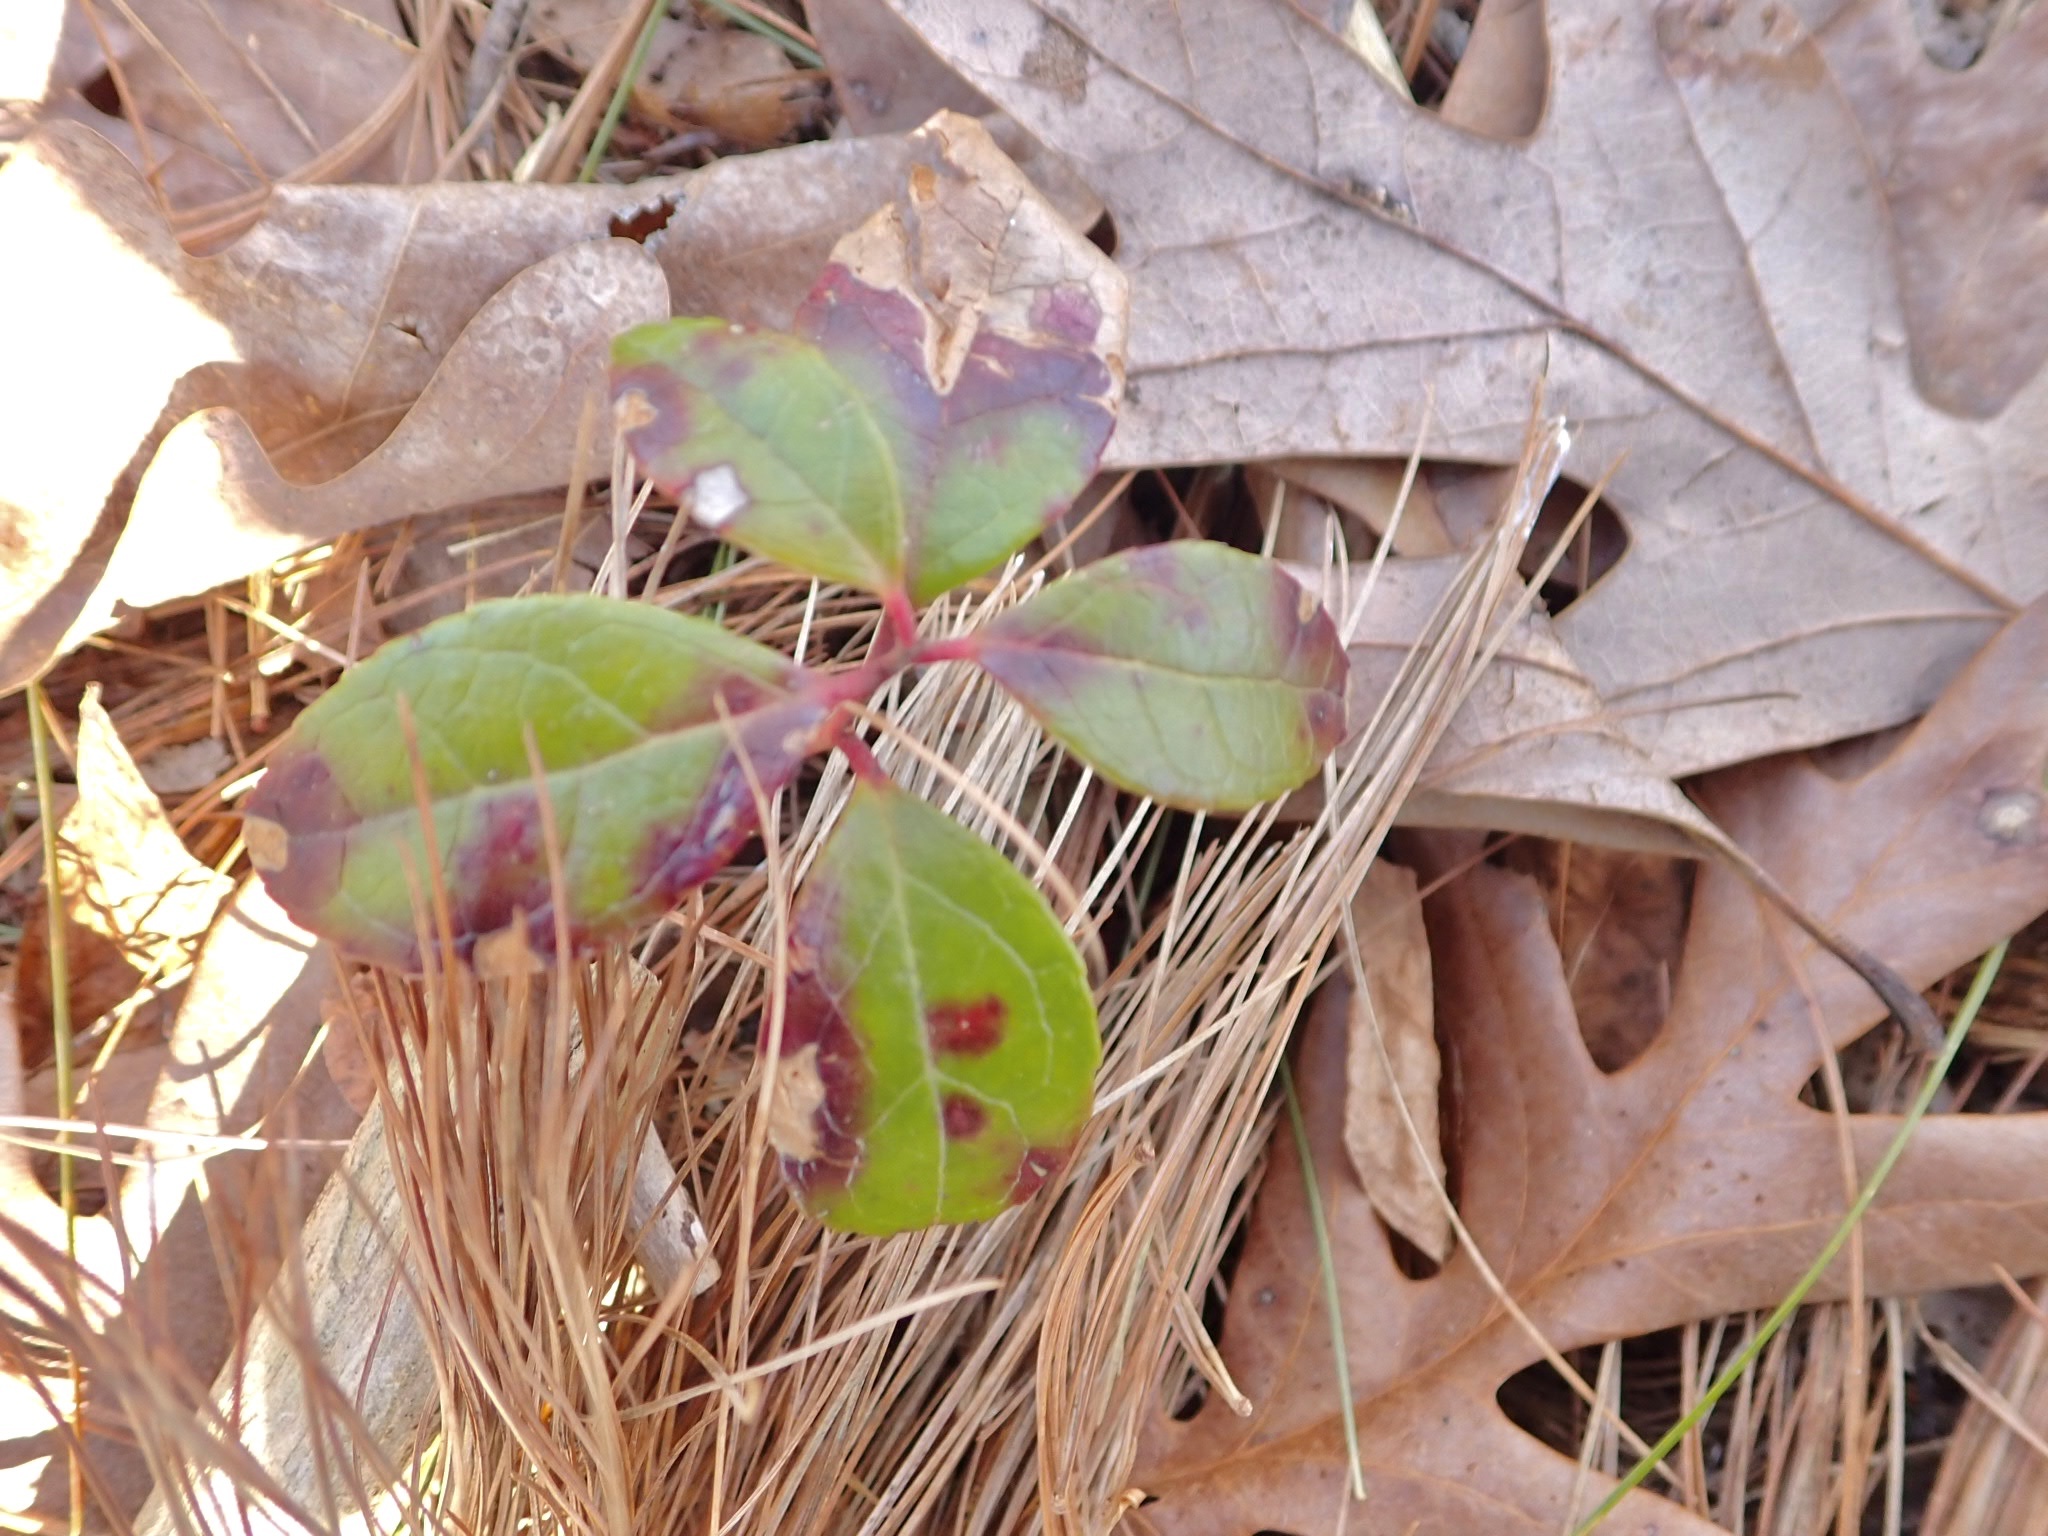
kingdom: Plantae
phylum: Tracheophyta
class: Magnoliopsida
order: Ericales
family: Ericaceae
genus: Gaultheria
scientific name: Gaultheria procumbens
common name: Checkerberry
